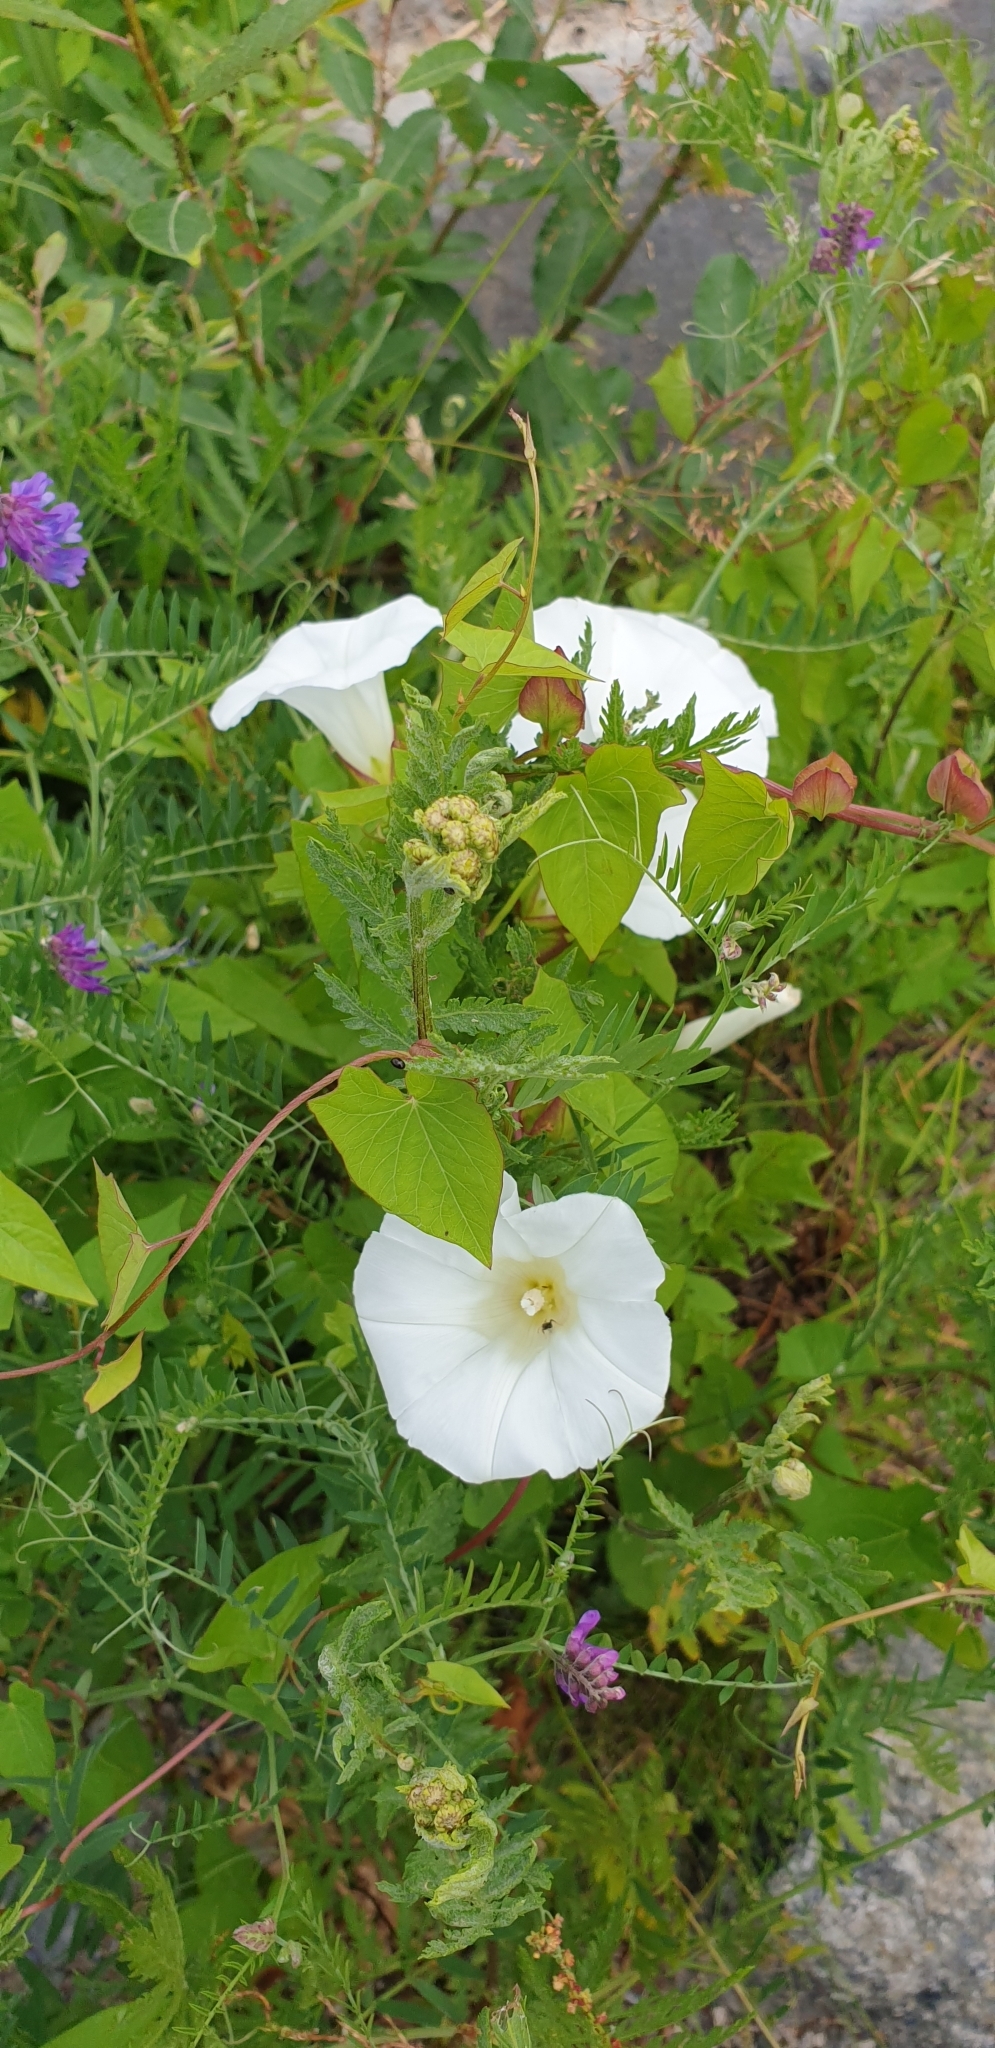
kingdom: Plantae
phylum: Tracheophyta
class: Magnoliopsida
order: Solanales
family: Convolvulaceae
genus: Calystegia
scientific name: Calystegia sepium
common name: Hedge bindweed
